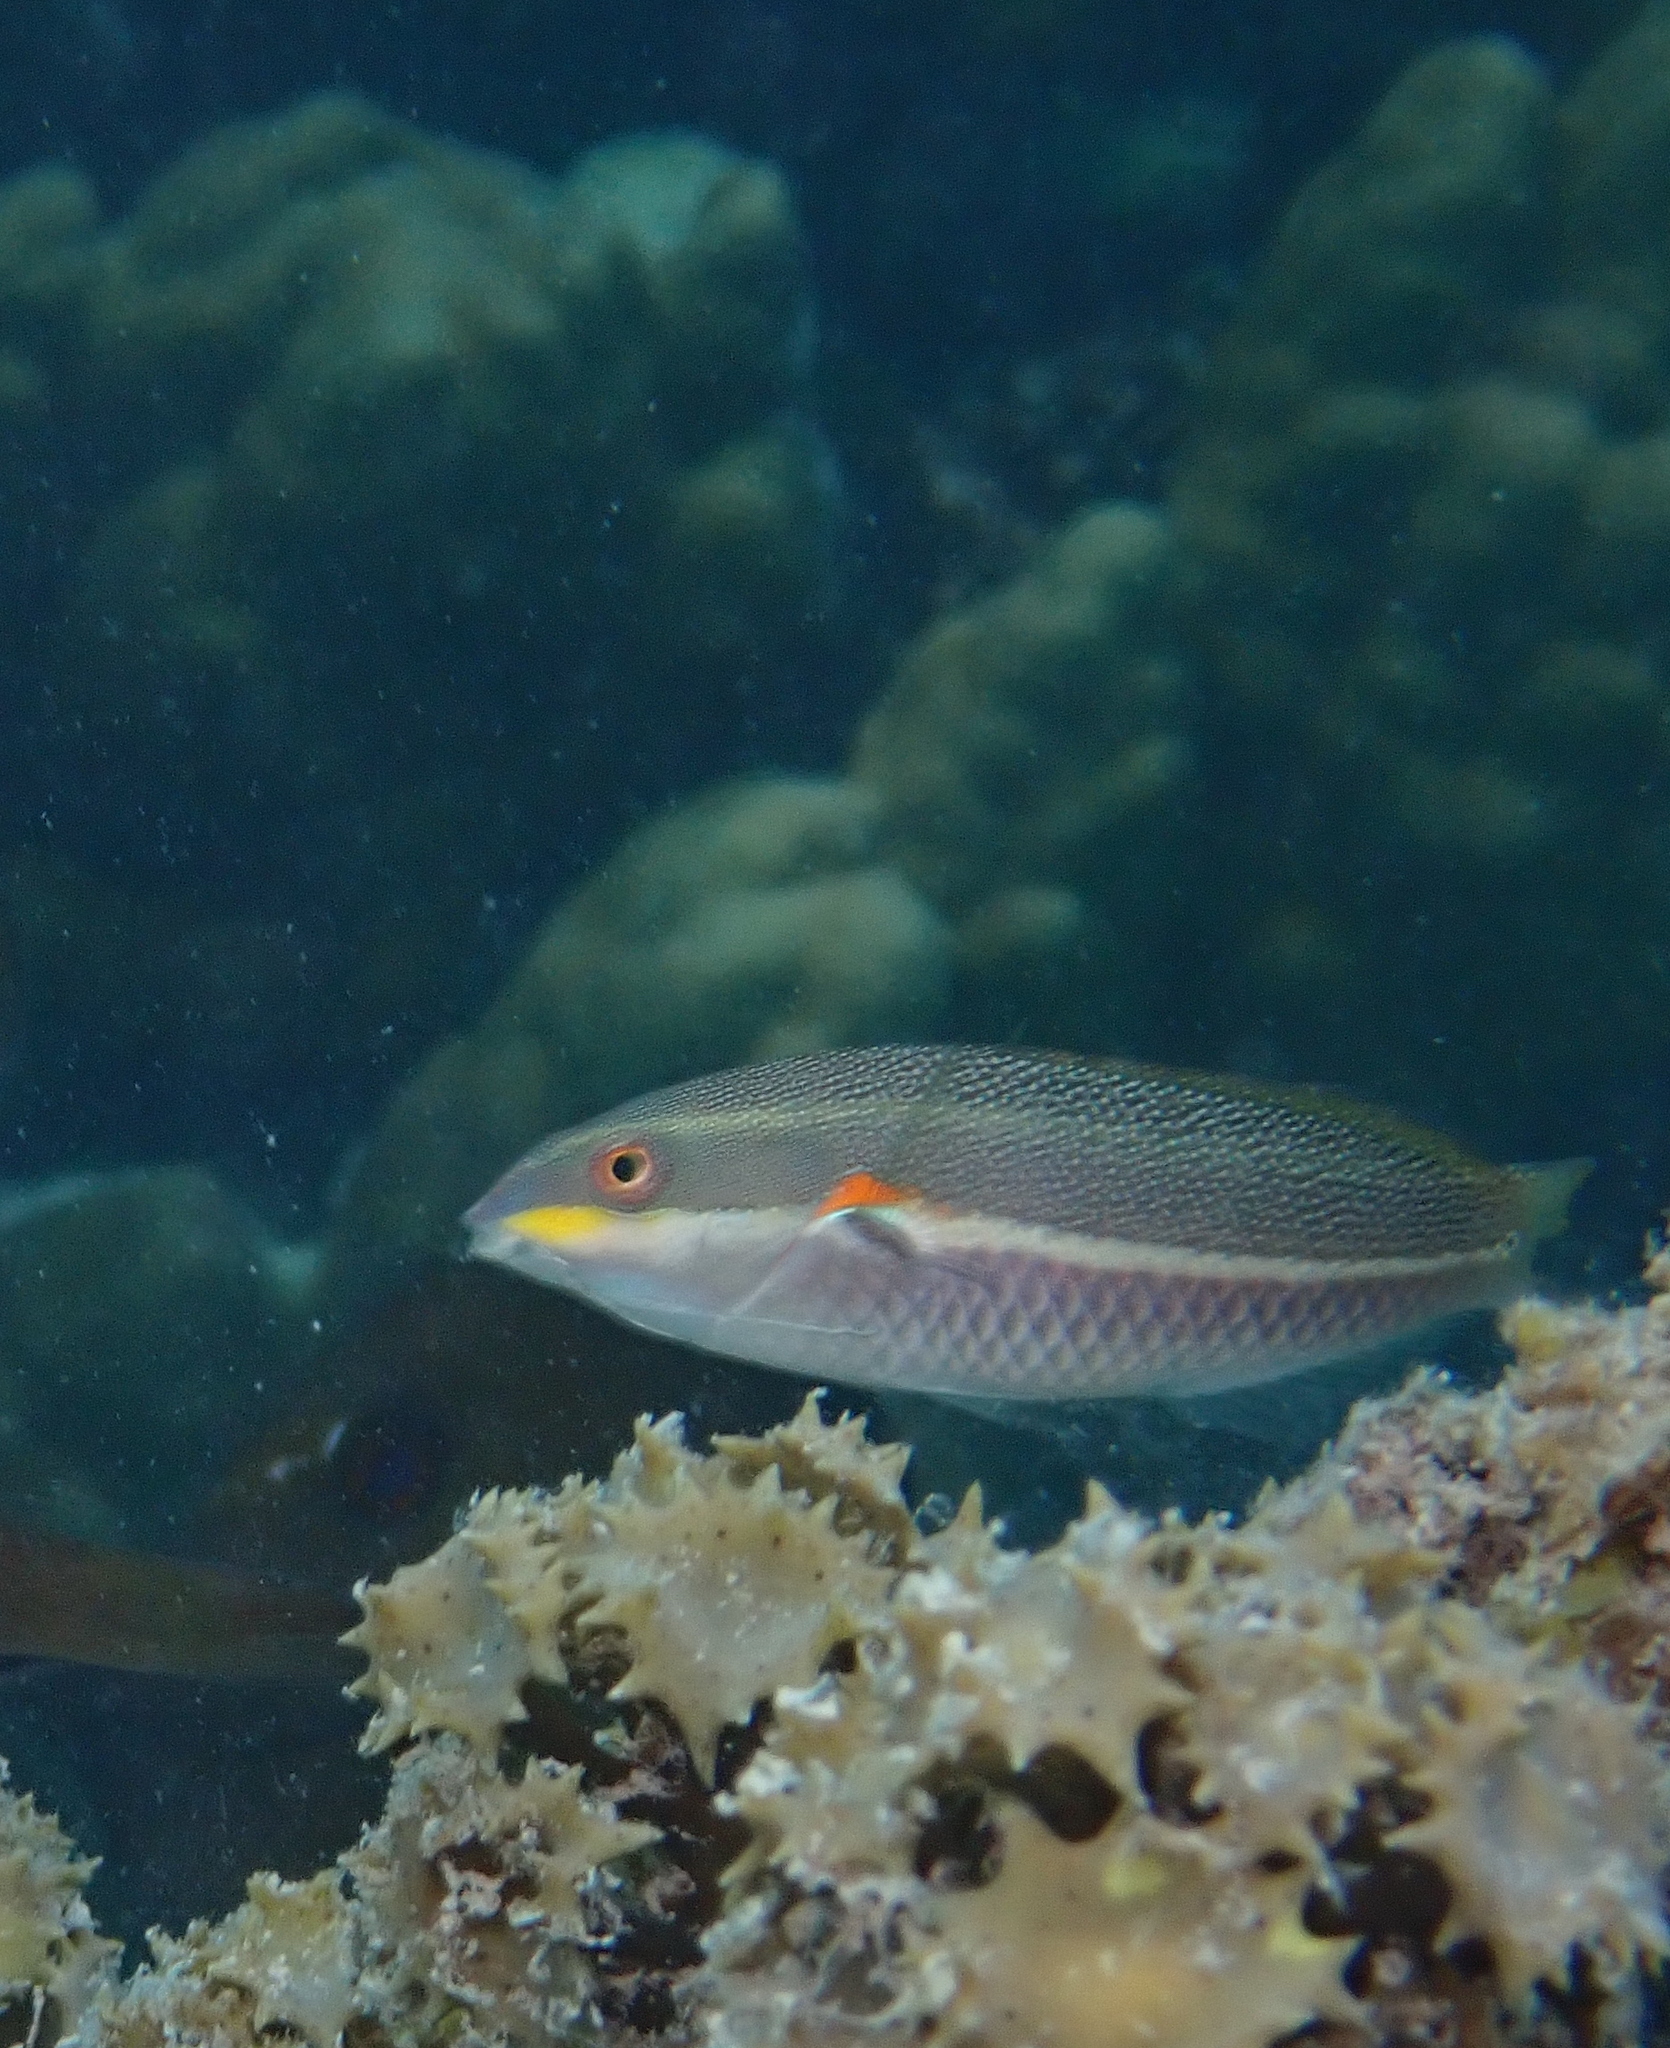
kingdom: Animalia
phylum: Chordata
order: Perciformes
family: Labridae
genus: Stethojulis
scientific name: Stethojulis bandanensis
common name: Red shoulder wrasse
